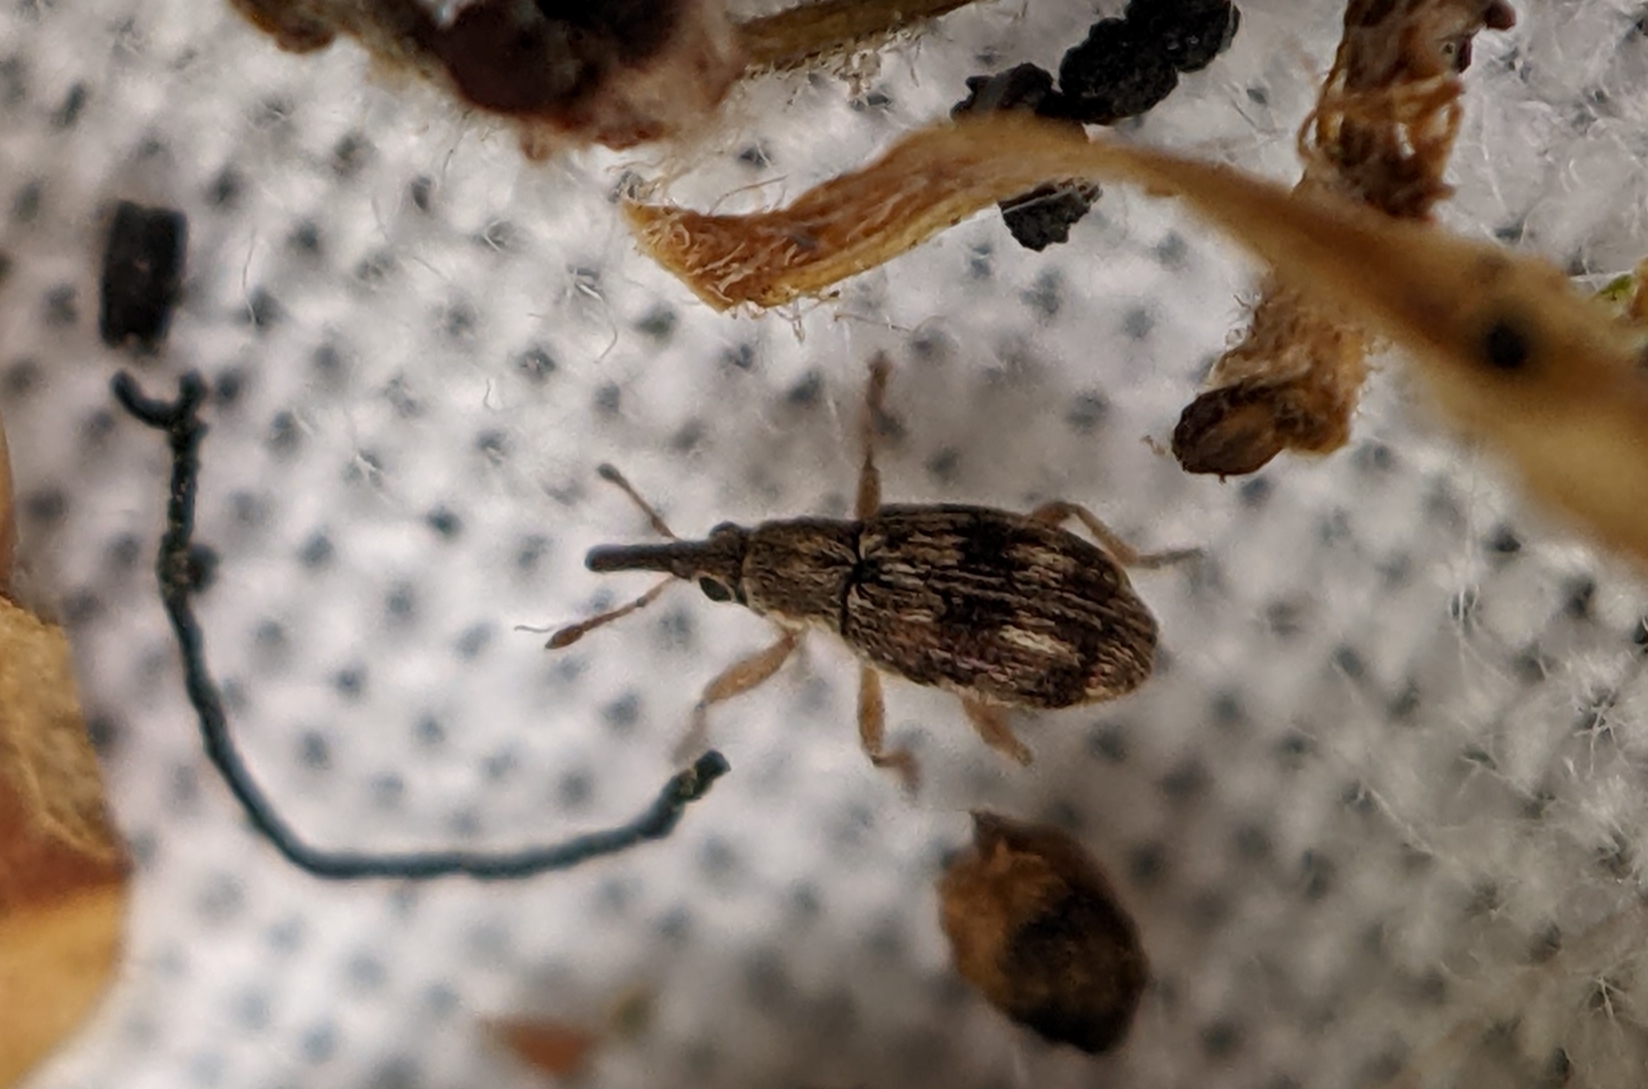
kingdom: Animalia
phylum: Arthropoda
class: Insecta
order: Coleoptera
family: Apionidae
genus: Taeniapion
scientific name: Taeniapion urticarium
